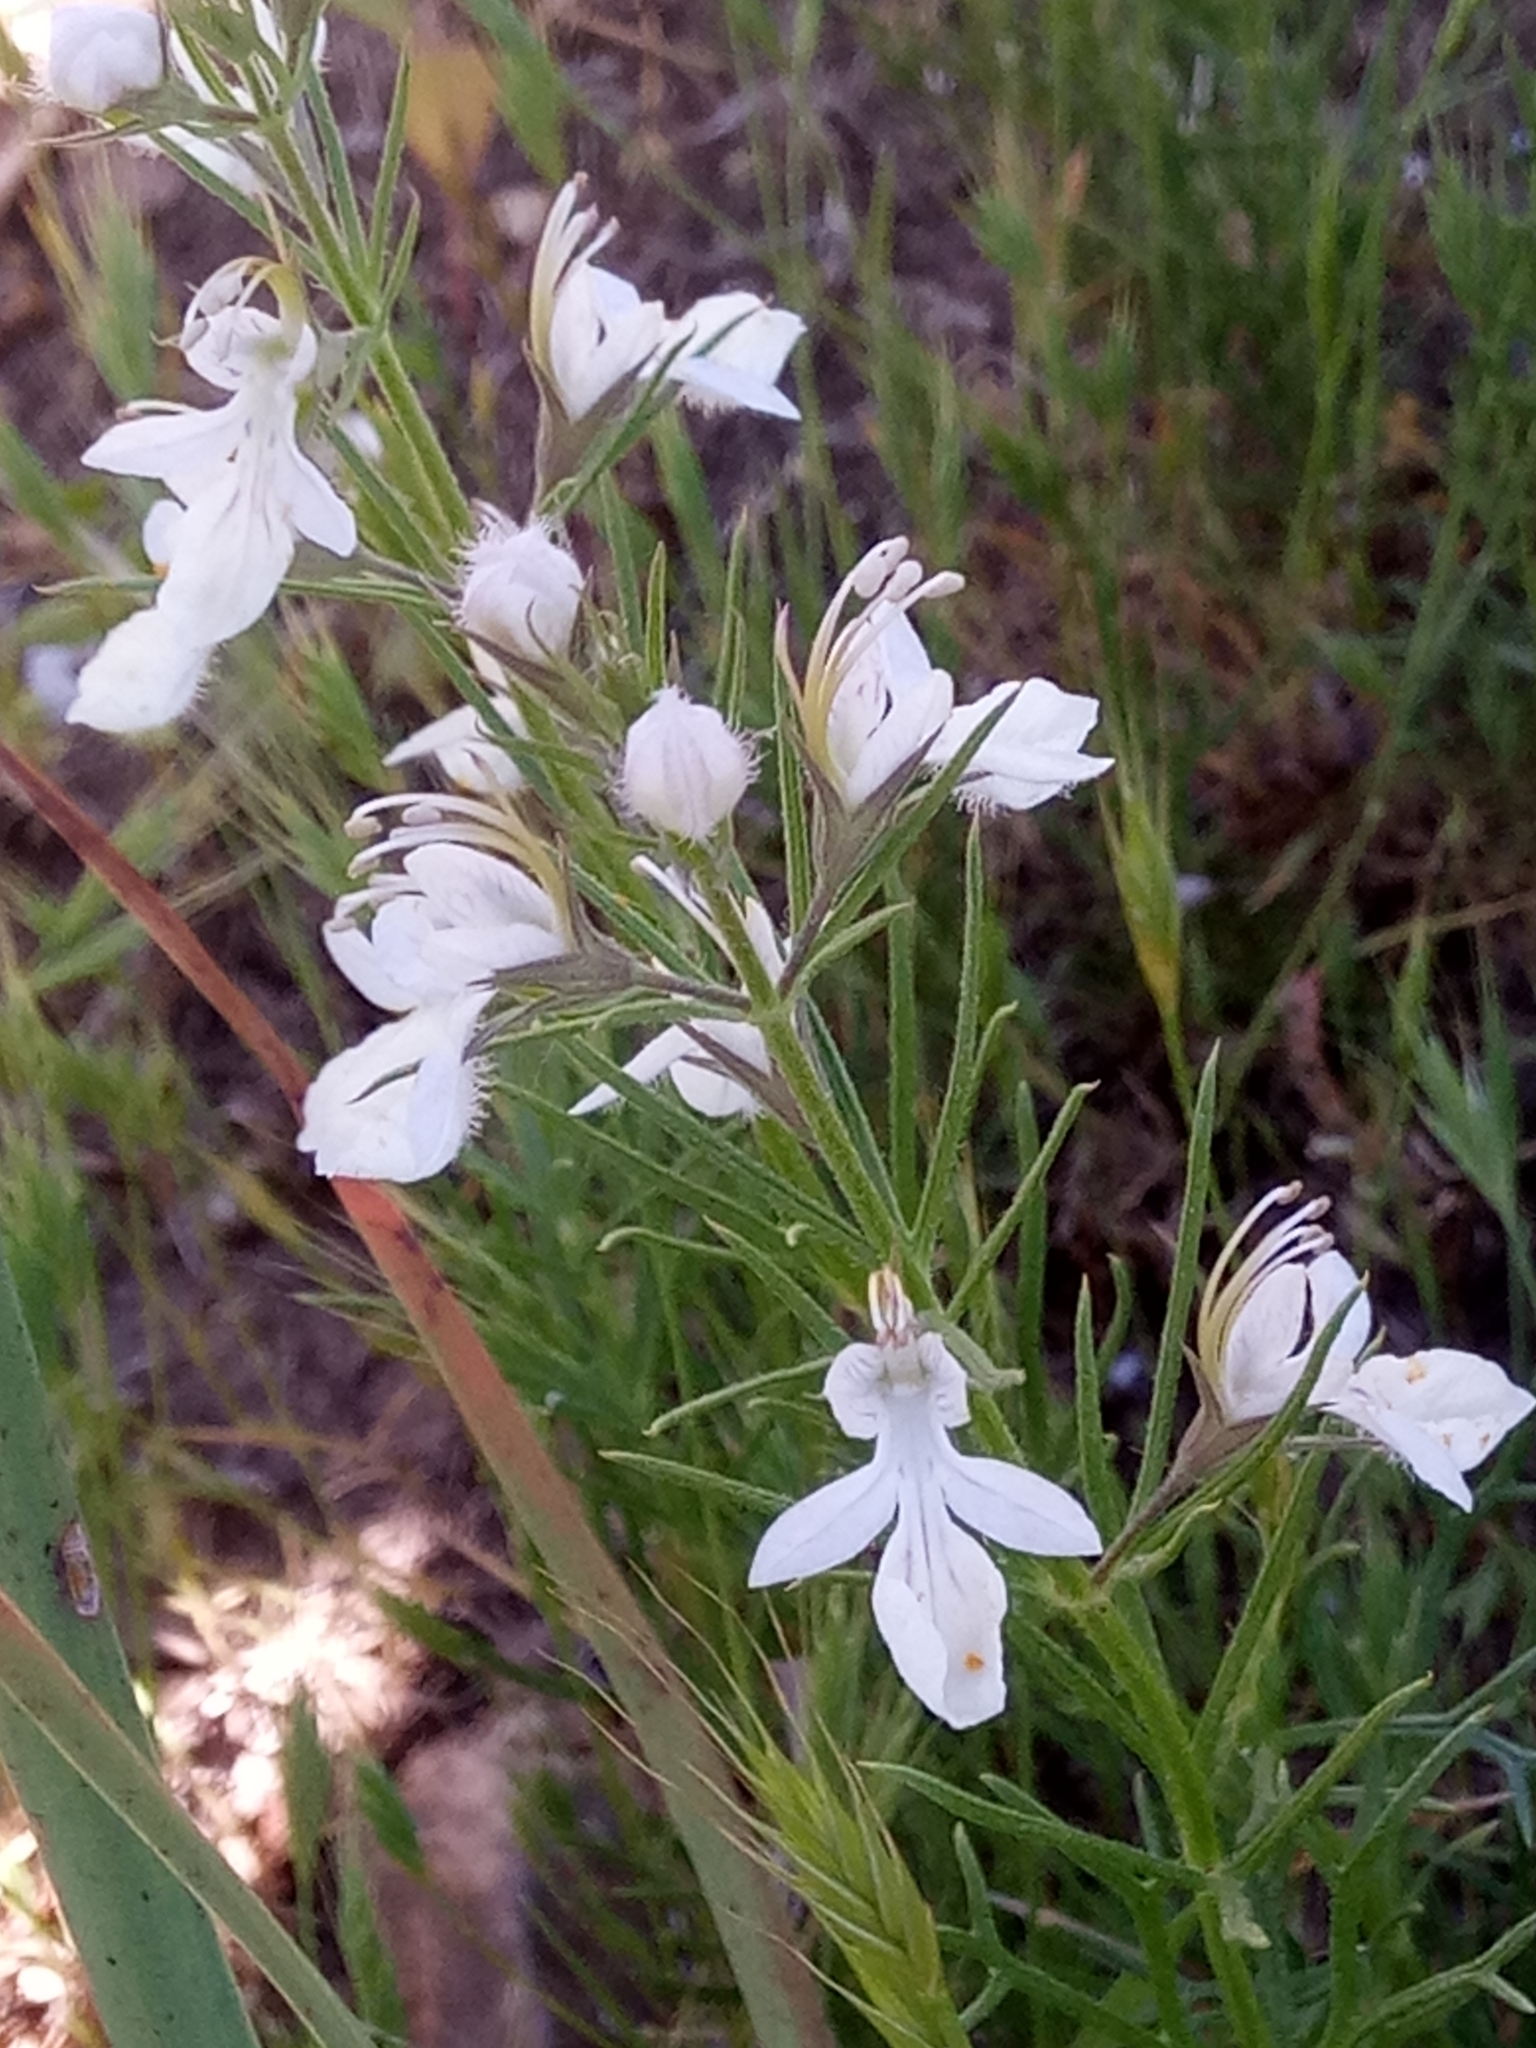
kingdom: Plantae
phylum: Tracheophyta
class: Magnoliopsida
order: Lamiales
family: Lamiaceae
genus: Teucrium
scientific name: Teucrium pseudochamaepitys
